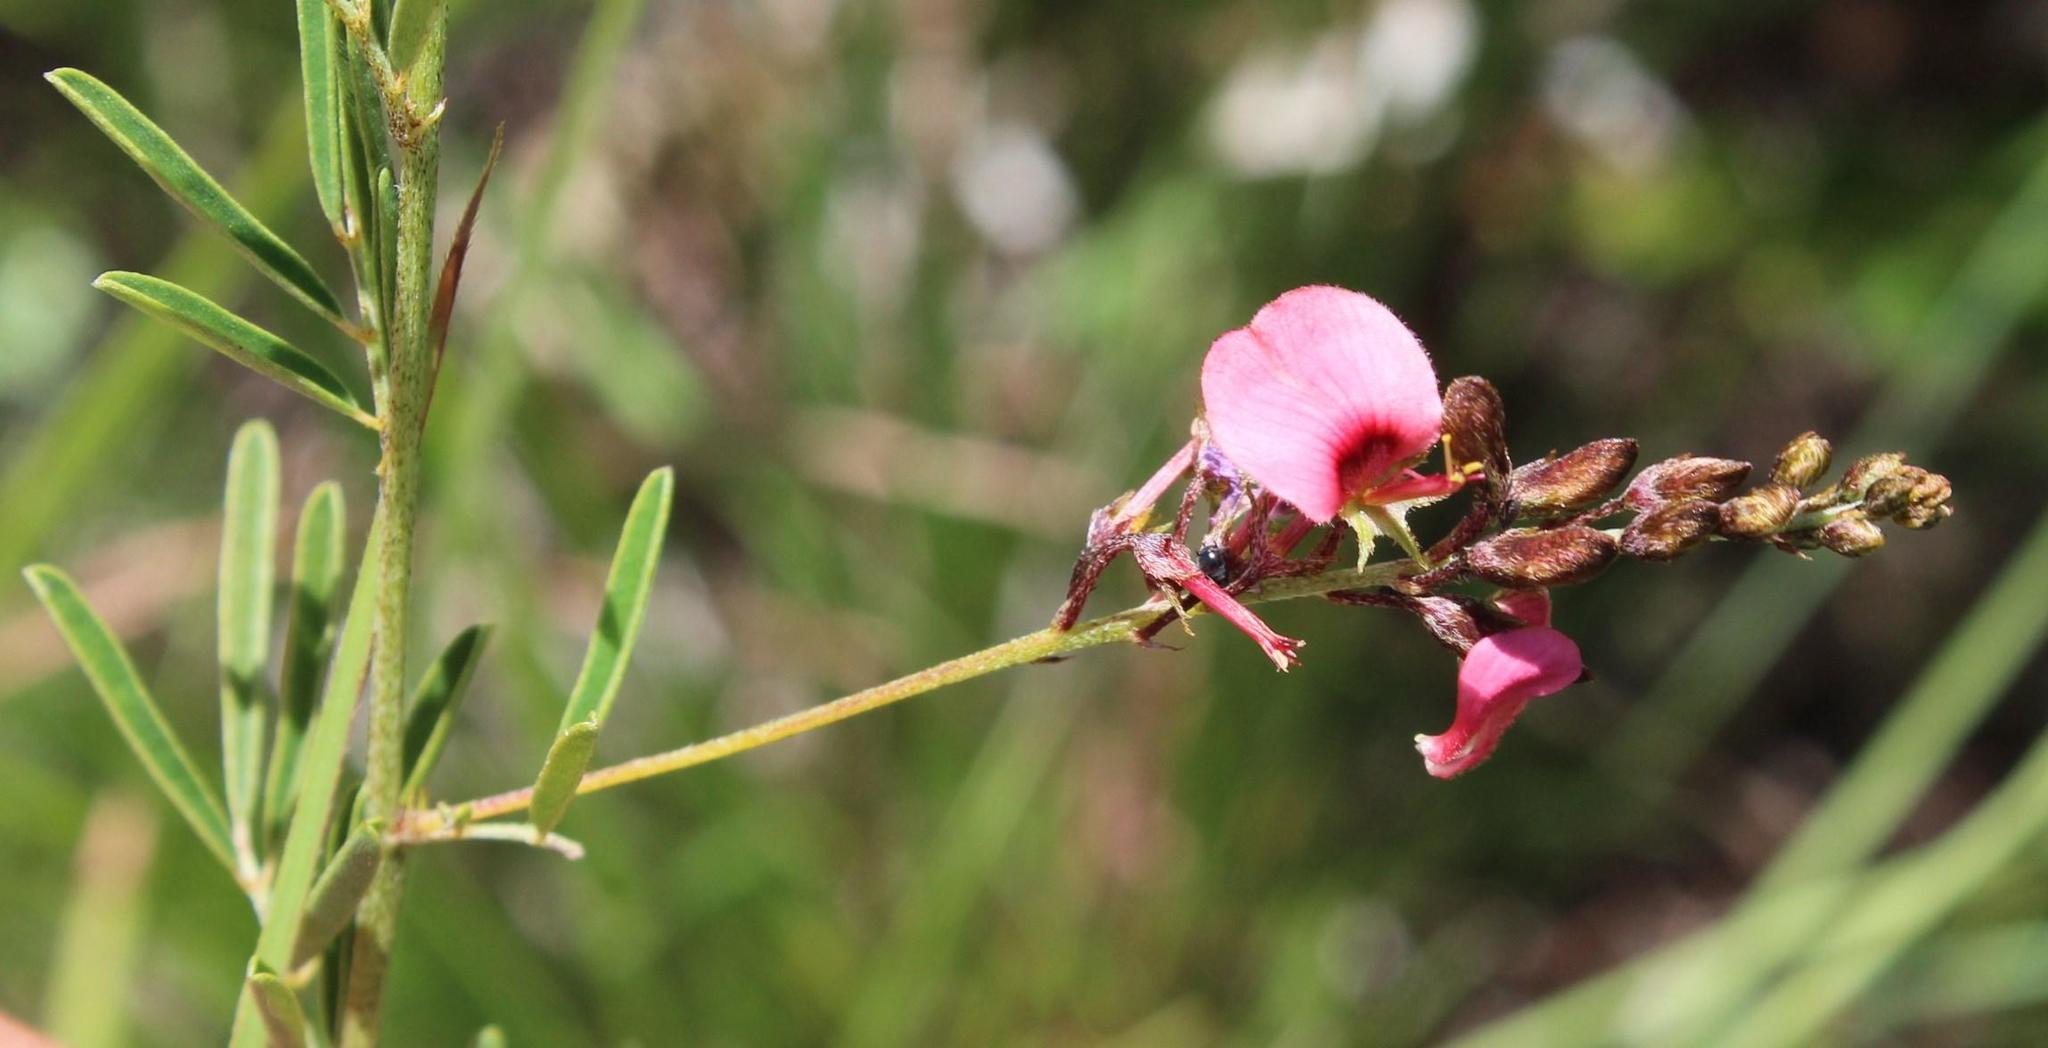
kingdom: Plantae
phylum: Tracheophyta
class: Magnoliopsida
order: Fabales
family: Fabaceae
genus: Indigofera
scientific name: Indigofera punctata
